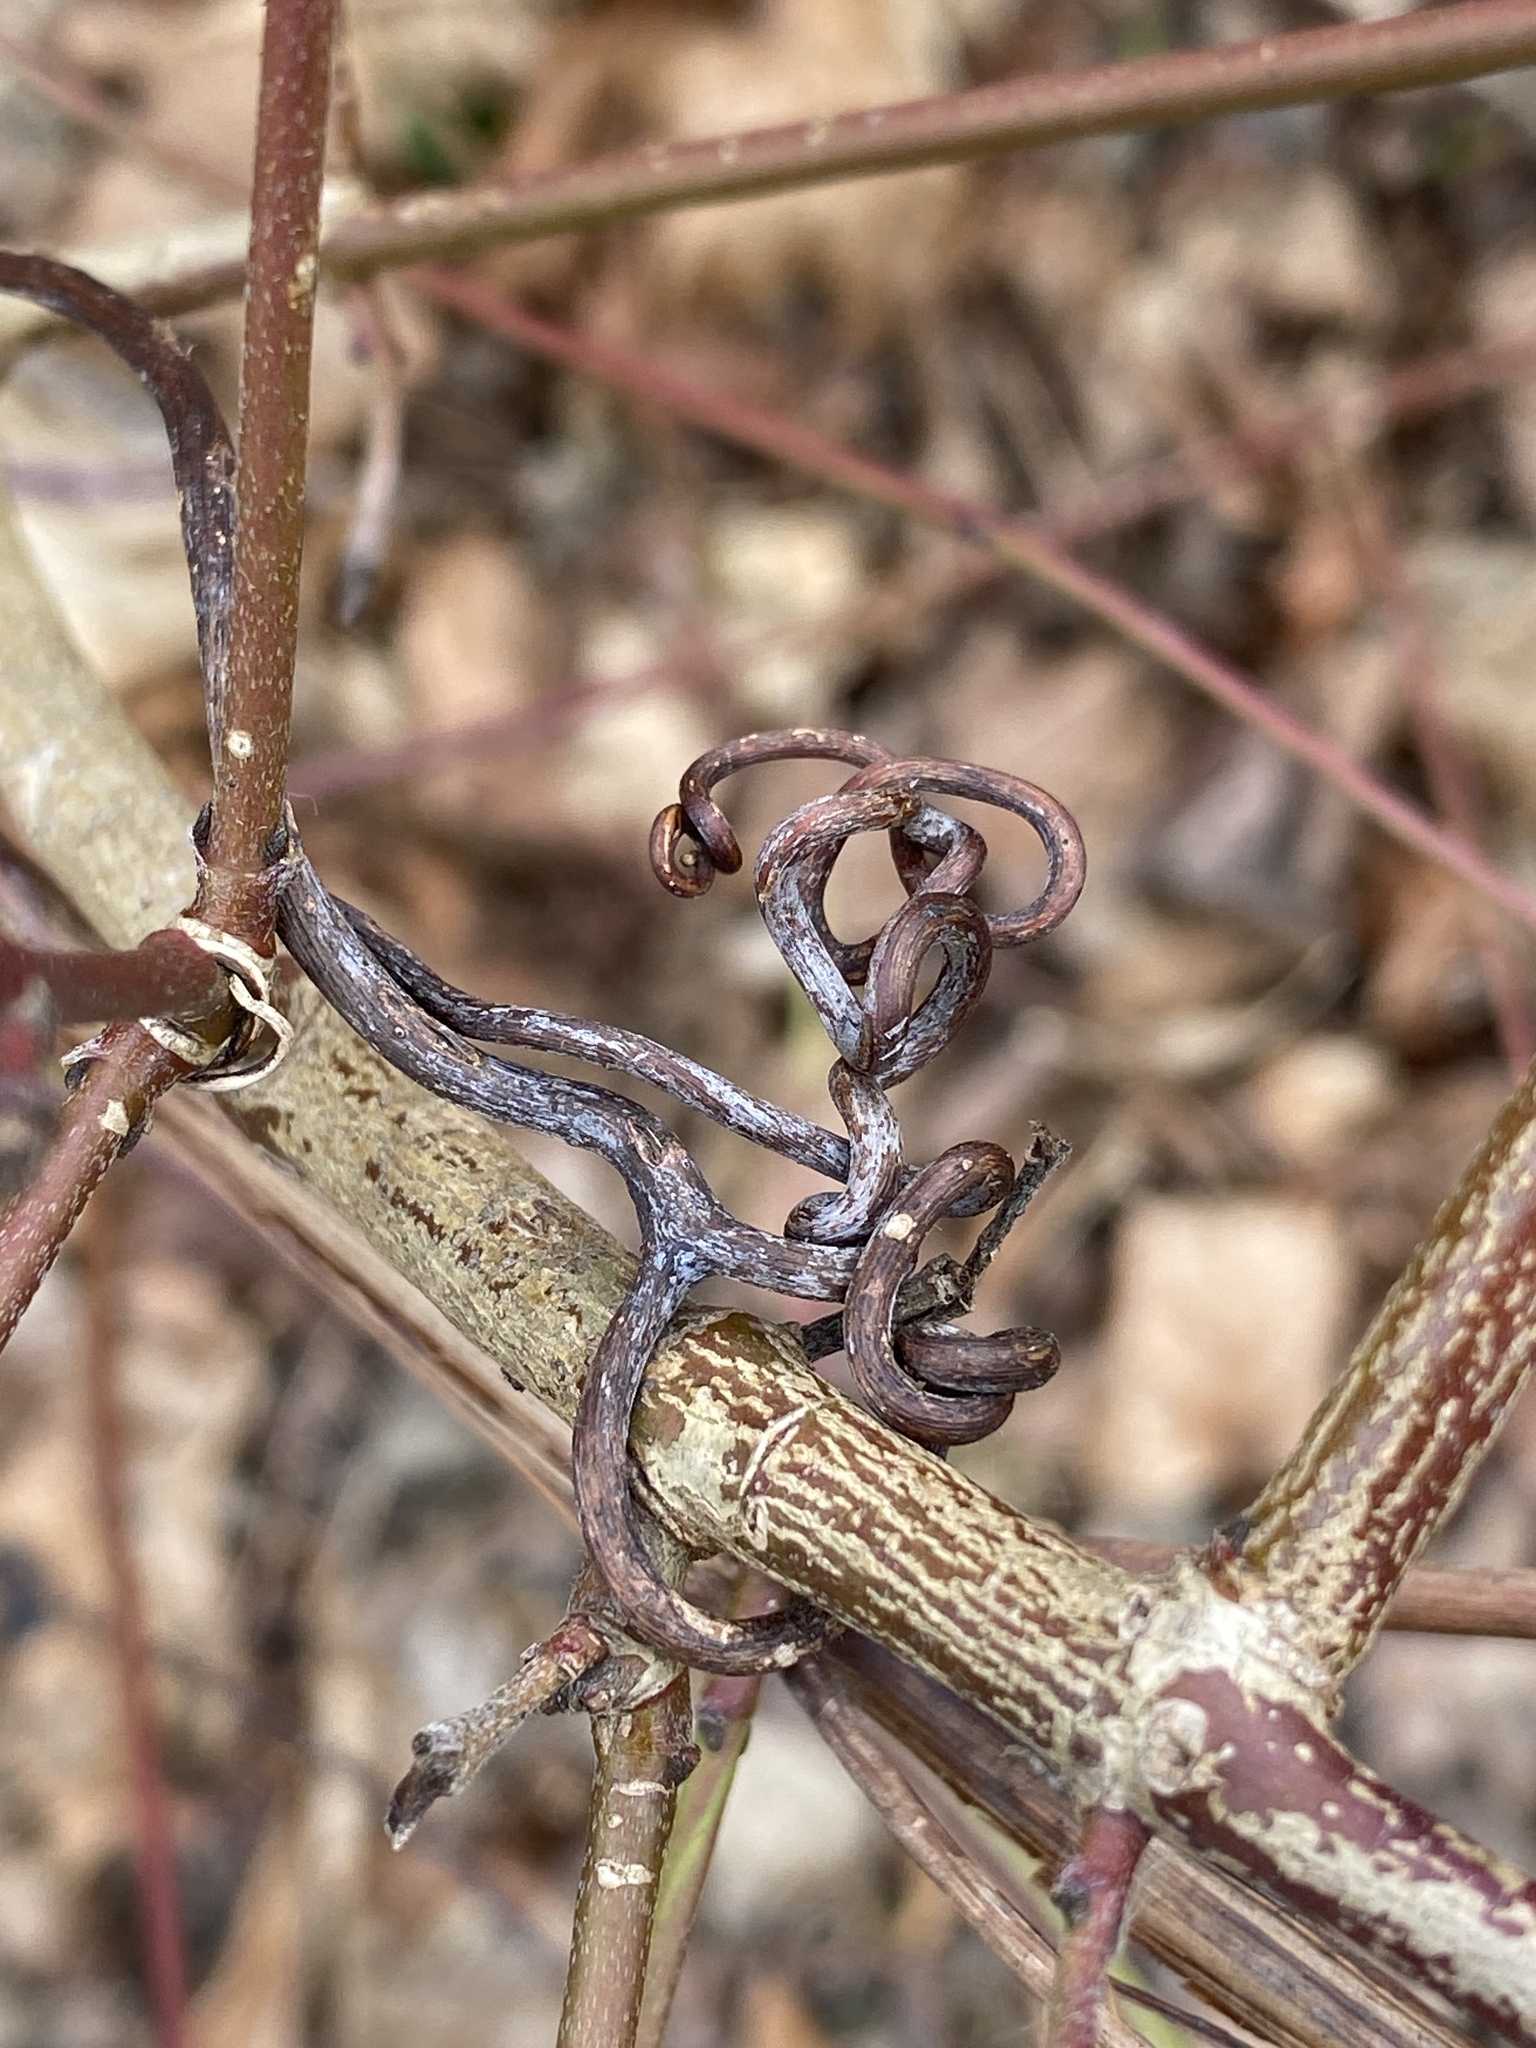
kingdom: Plantae
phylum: Tracheophyta
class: Magnoliopsida
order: Vitales
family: Vitaceae
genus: Vitis
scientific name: Vitis
